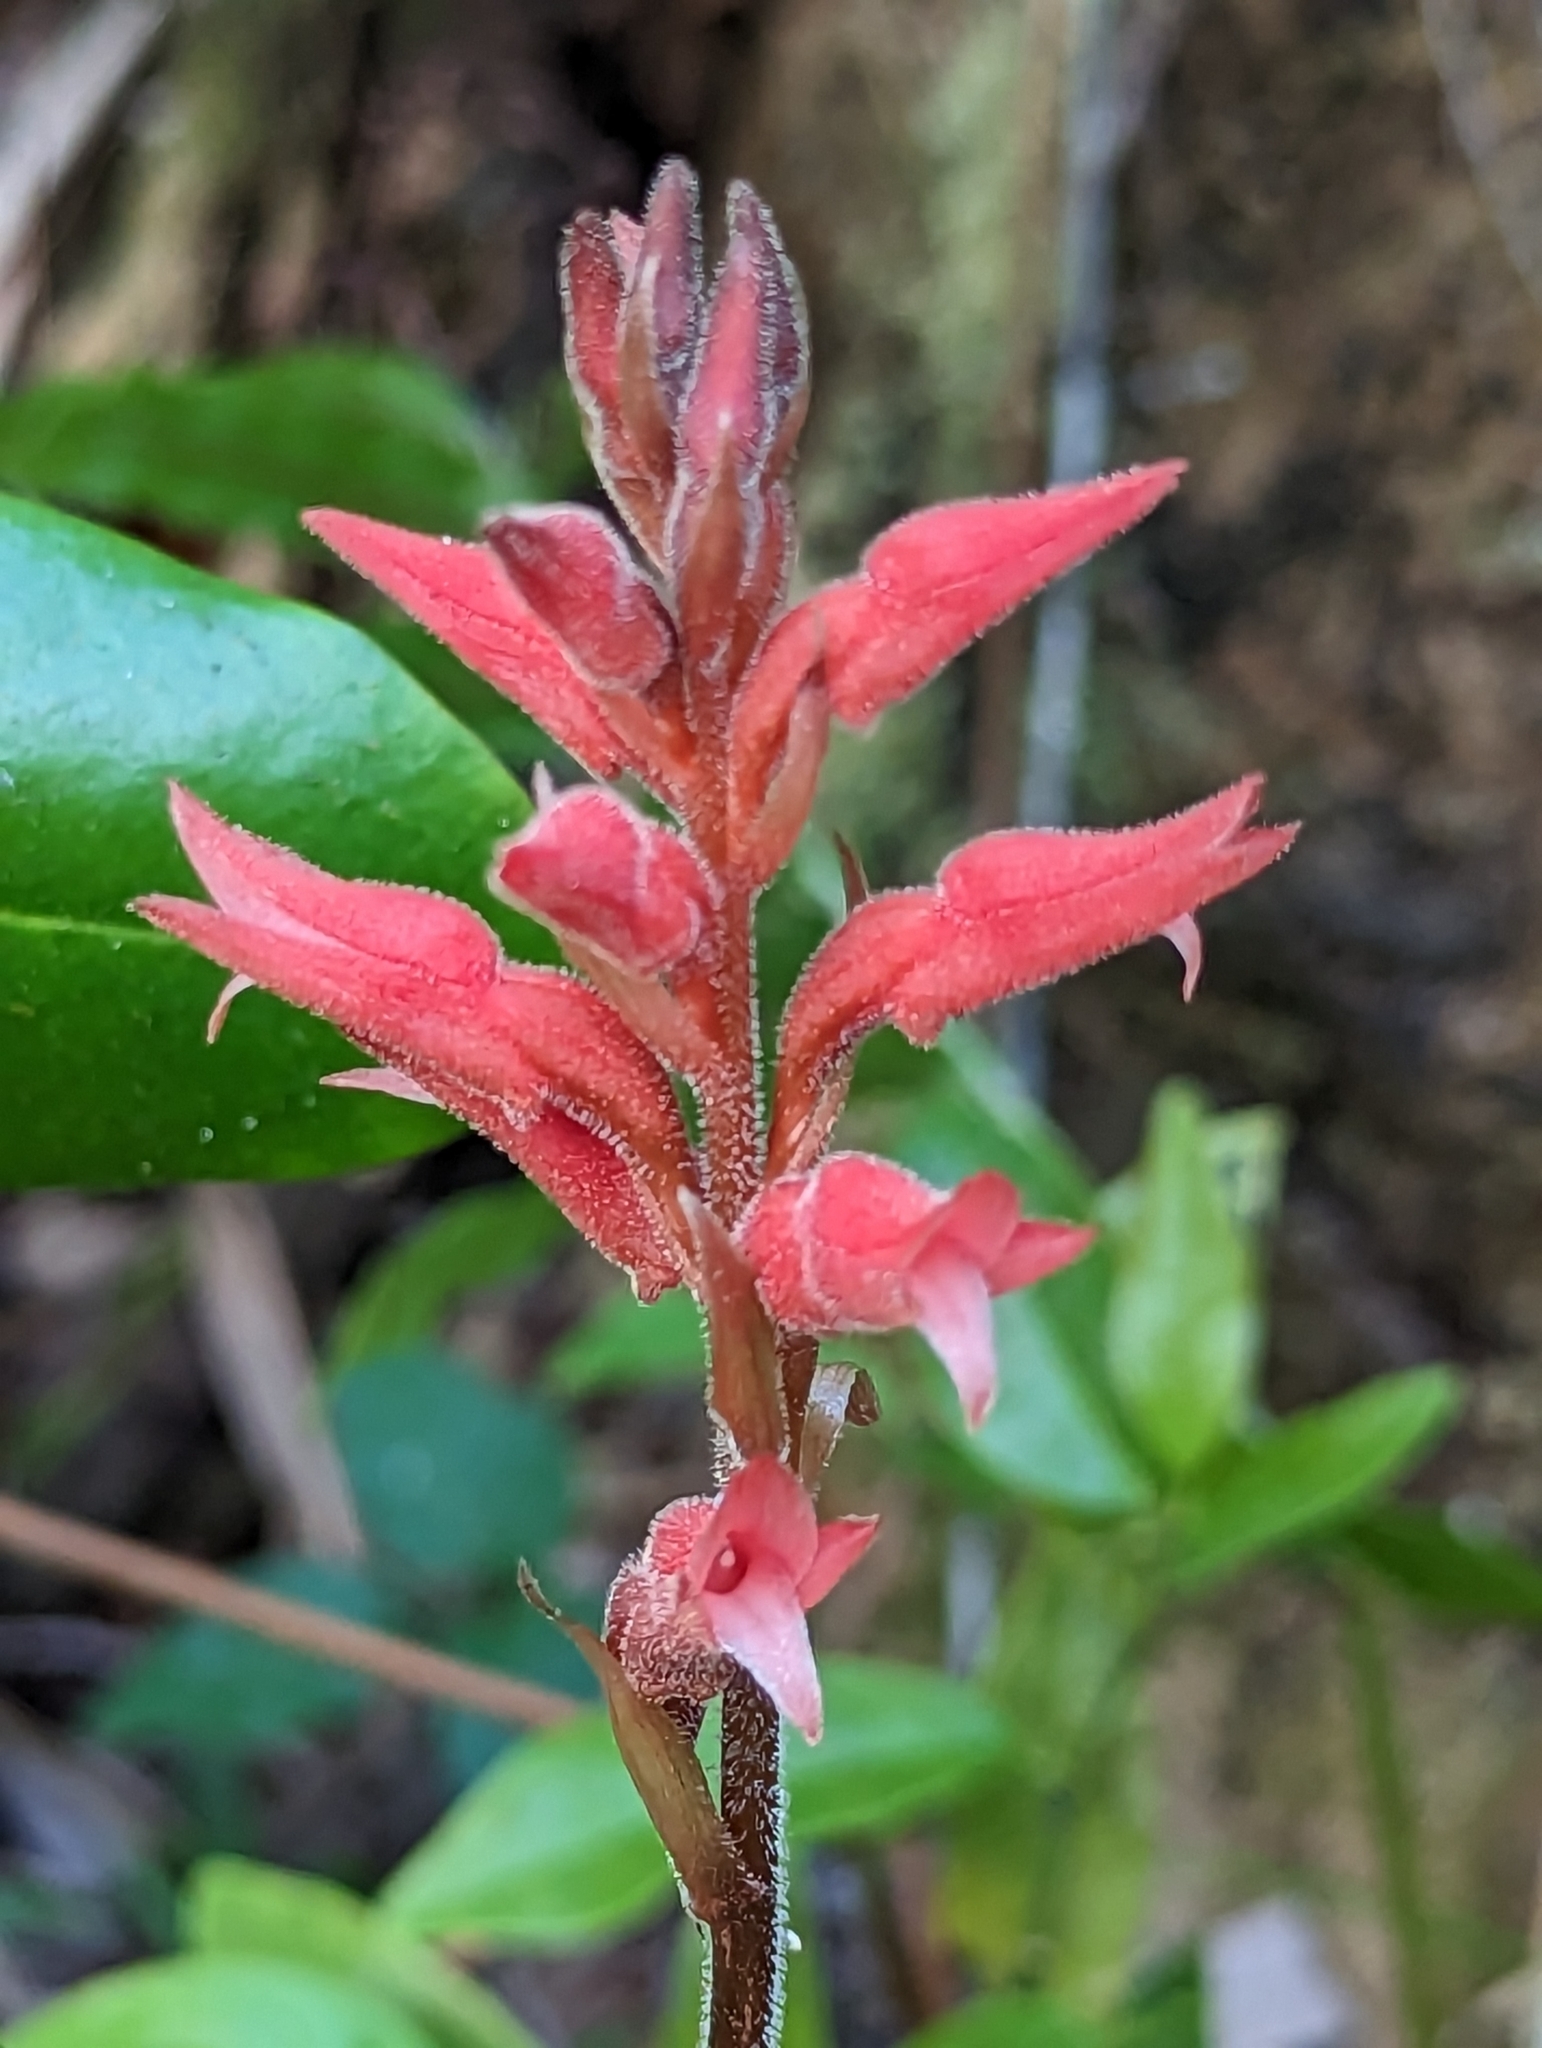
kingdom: Plantae
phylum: Tracheophyta
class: Liliopsida
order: Asparagales
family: Orchidaceae
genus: Sacoila
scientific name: Sacoila lanceolata
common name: Leafless beaked ladiestresses
